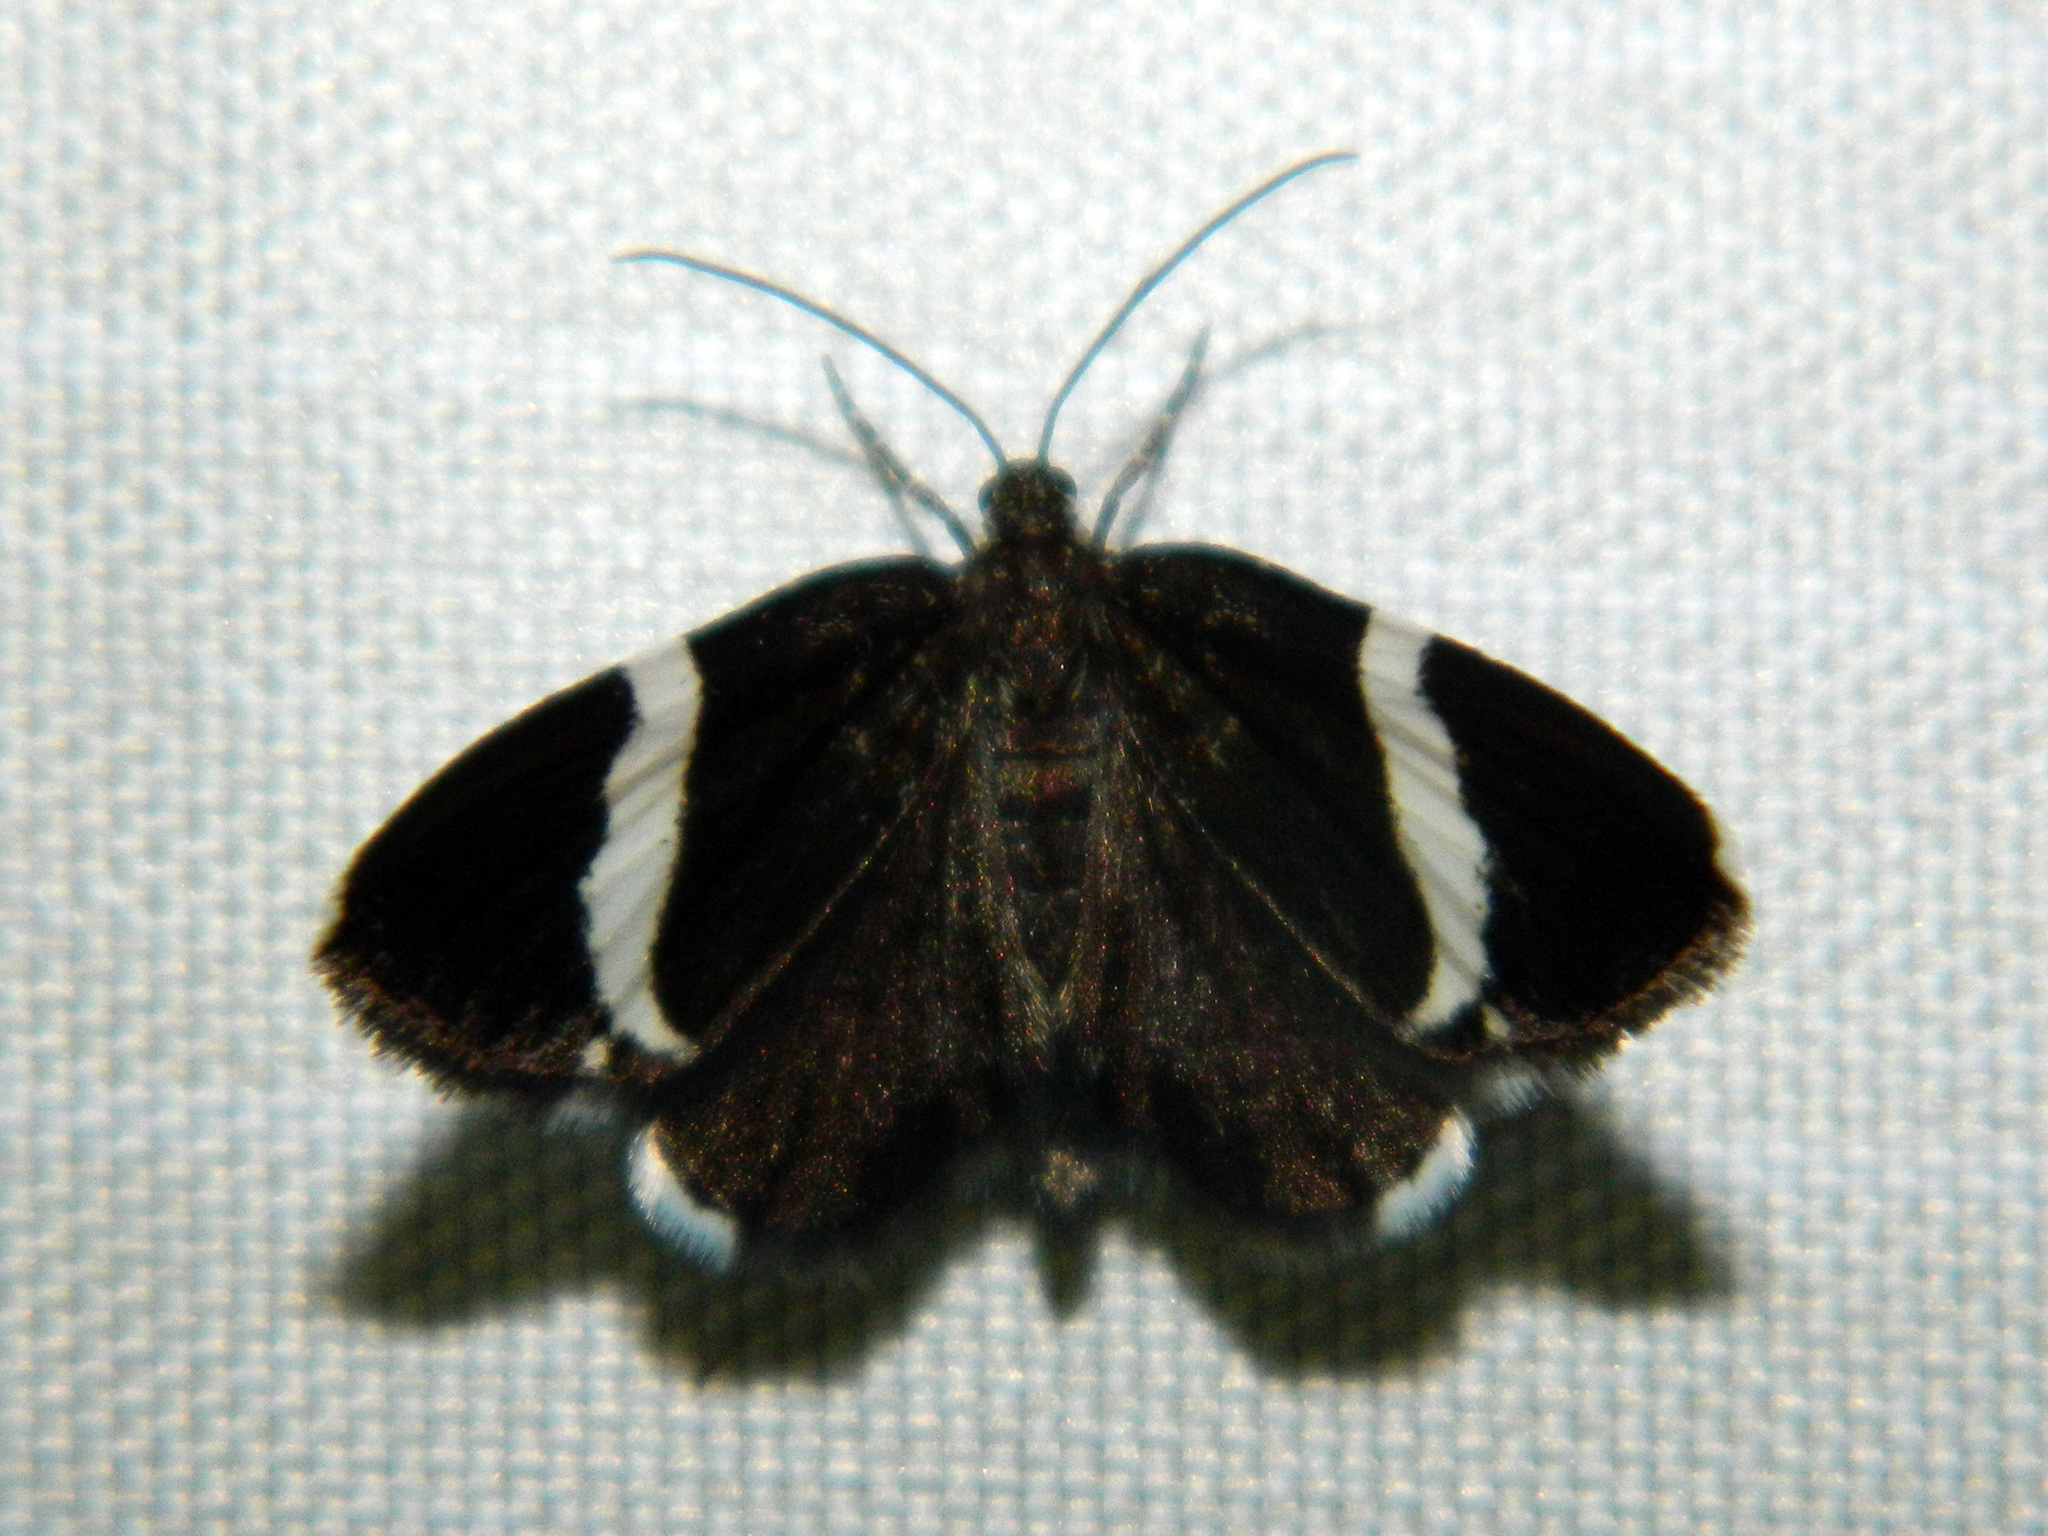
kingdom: Animalia
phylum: Arthropoda
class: Insecta
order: Lepidoptera
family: Geometridae
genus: Trichodezia
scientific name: Trichodezia albovittata
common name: White striped black
